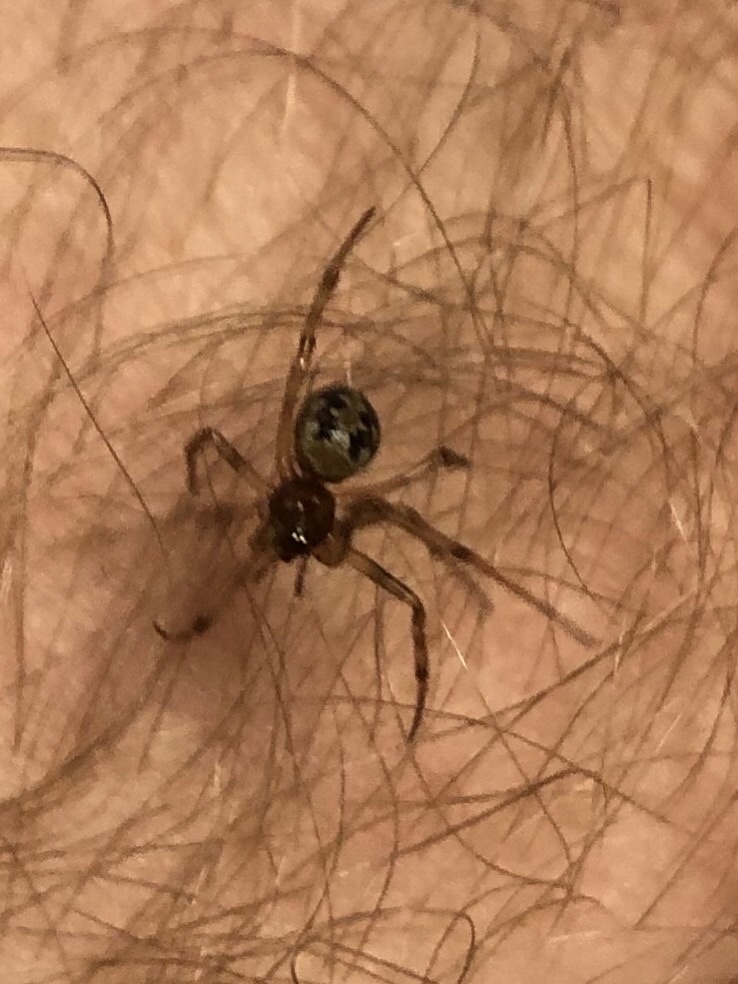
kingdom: Animalia
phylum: Arthropoda
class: Arachnida
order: Araneae
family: Theridiidae
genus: Steatoda
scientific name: Steatoda triangulosa
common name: Triangulate bud spider
